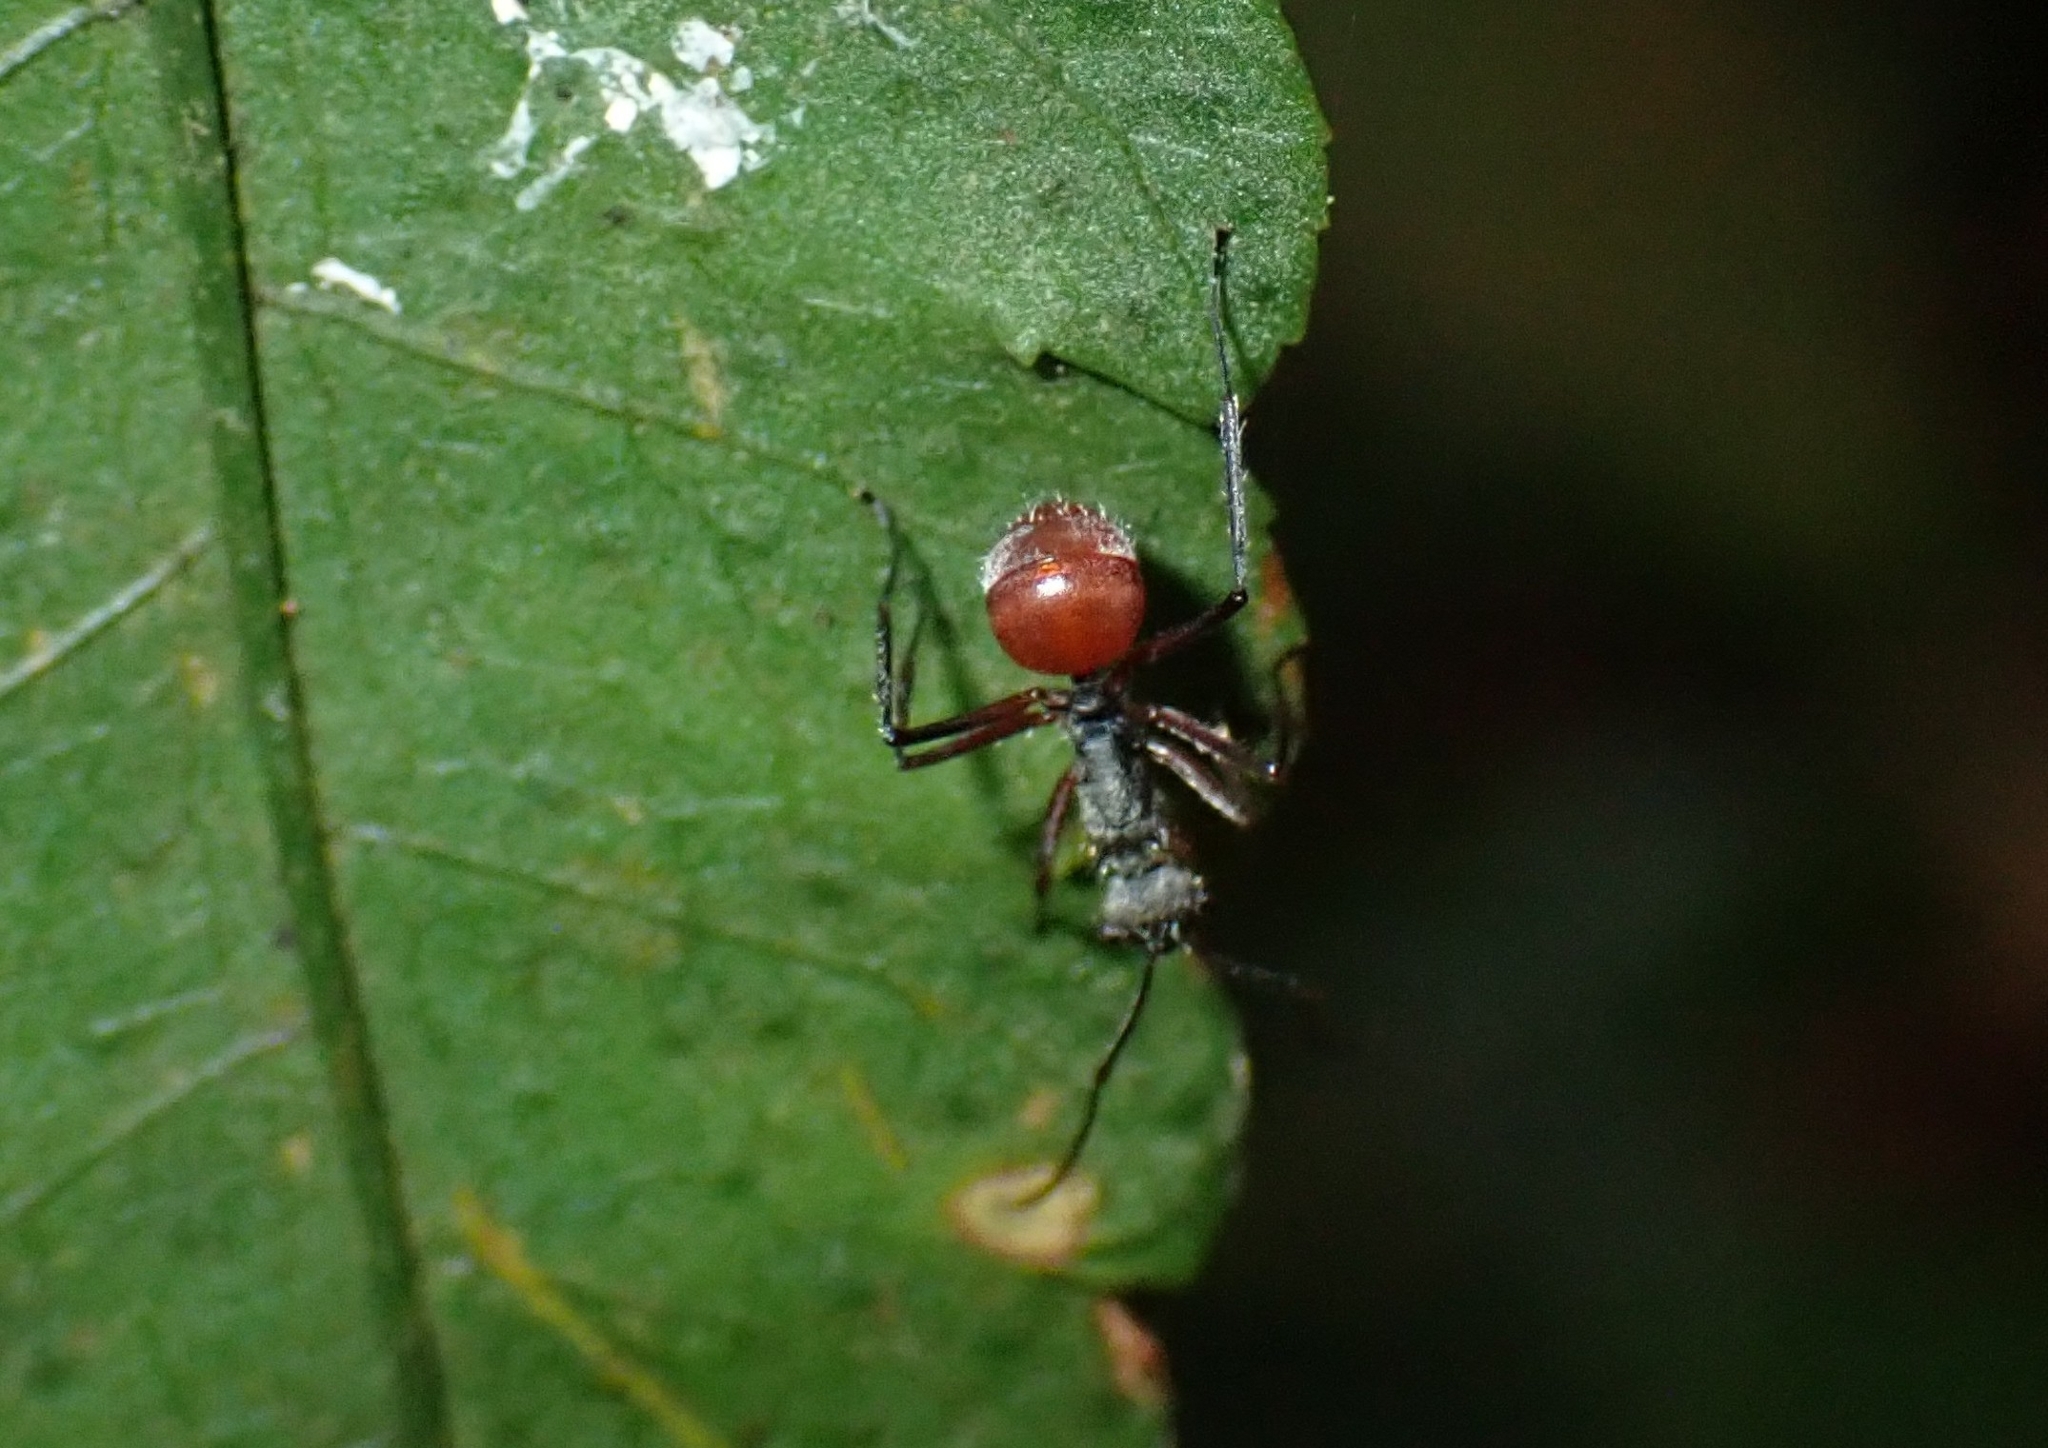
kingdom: Animalia
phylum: Arthropoda
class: Insecta
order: Hymenoptera
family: Formicidae
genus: Polyrhachis
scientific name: Polyrhachis bicolor
